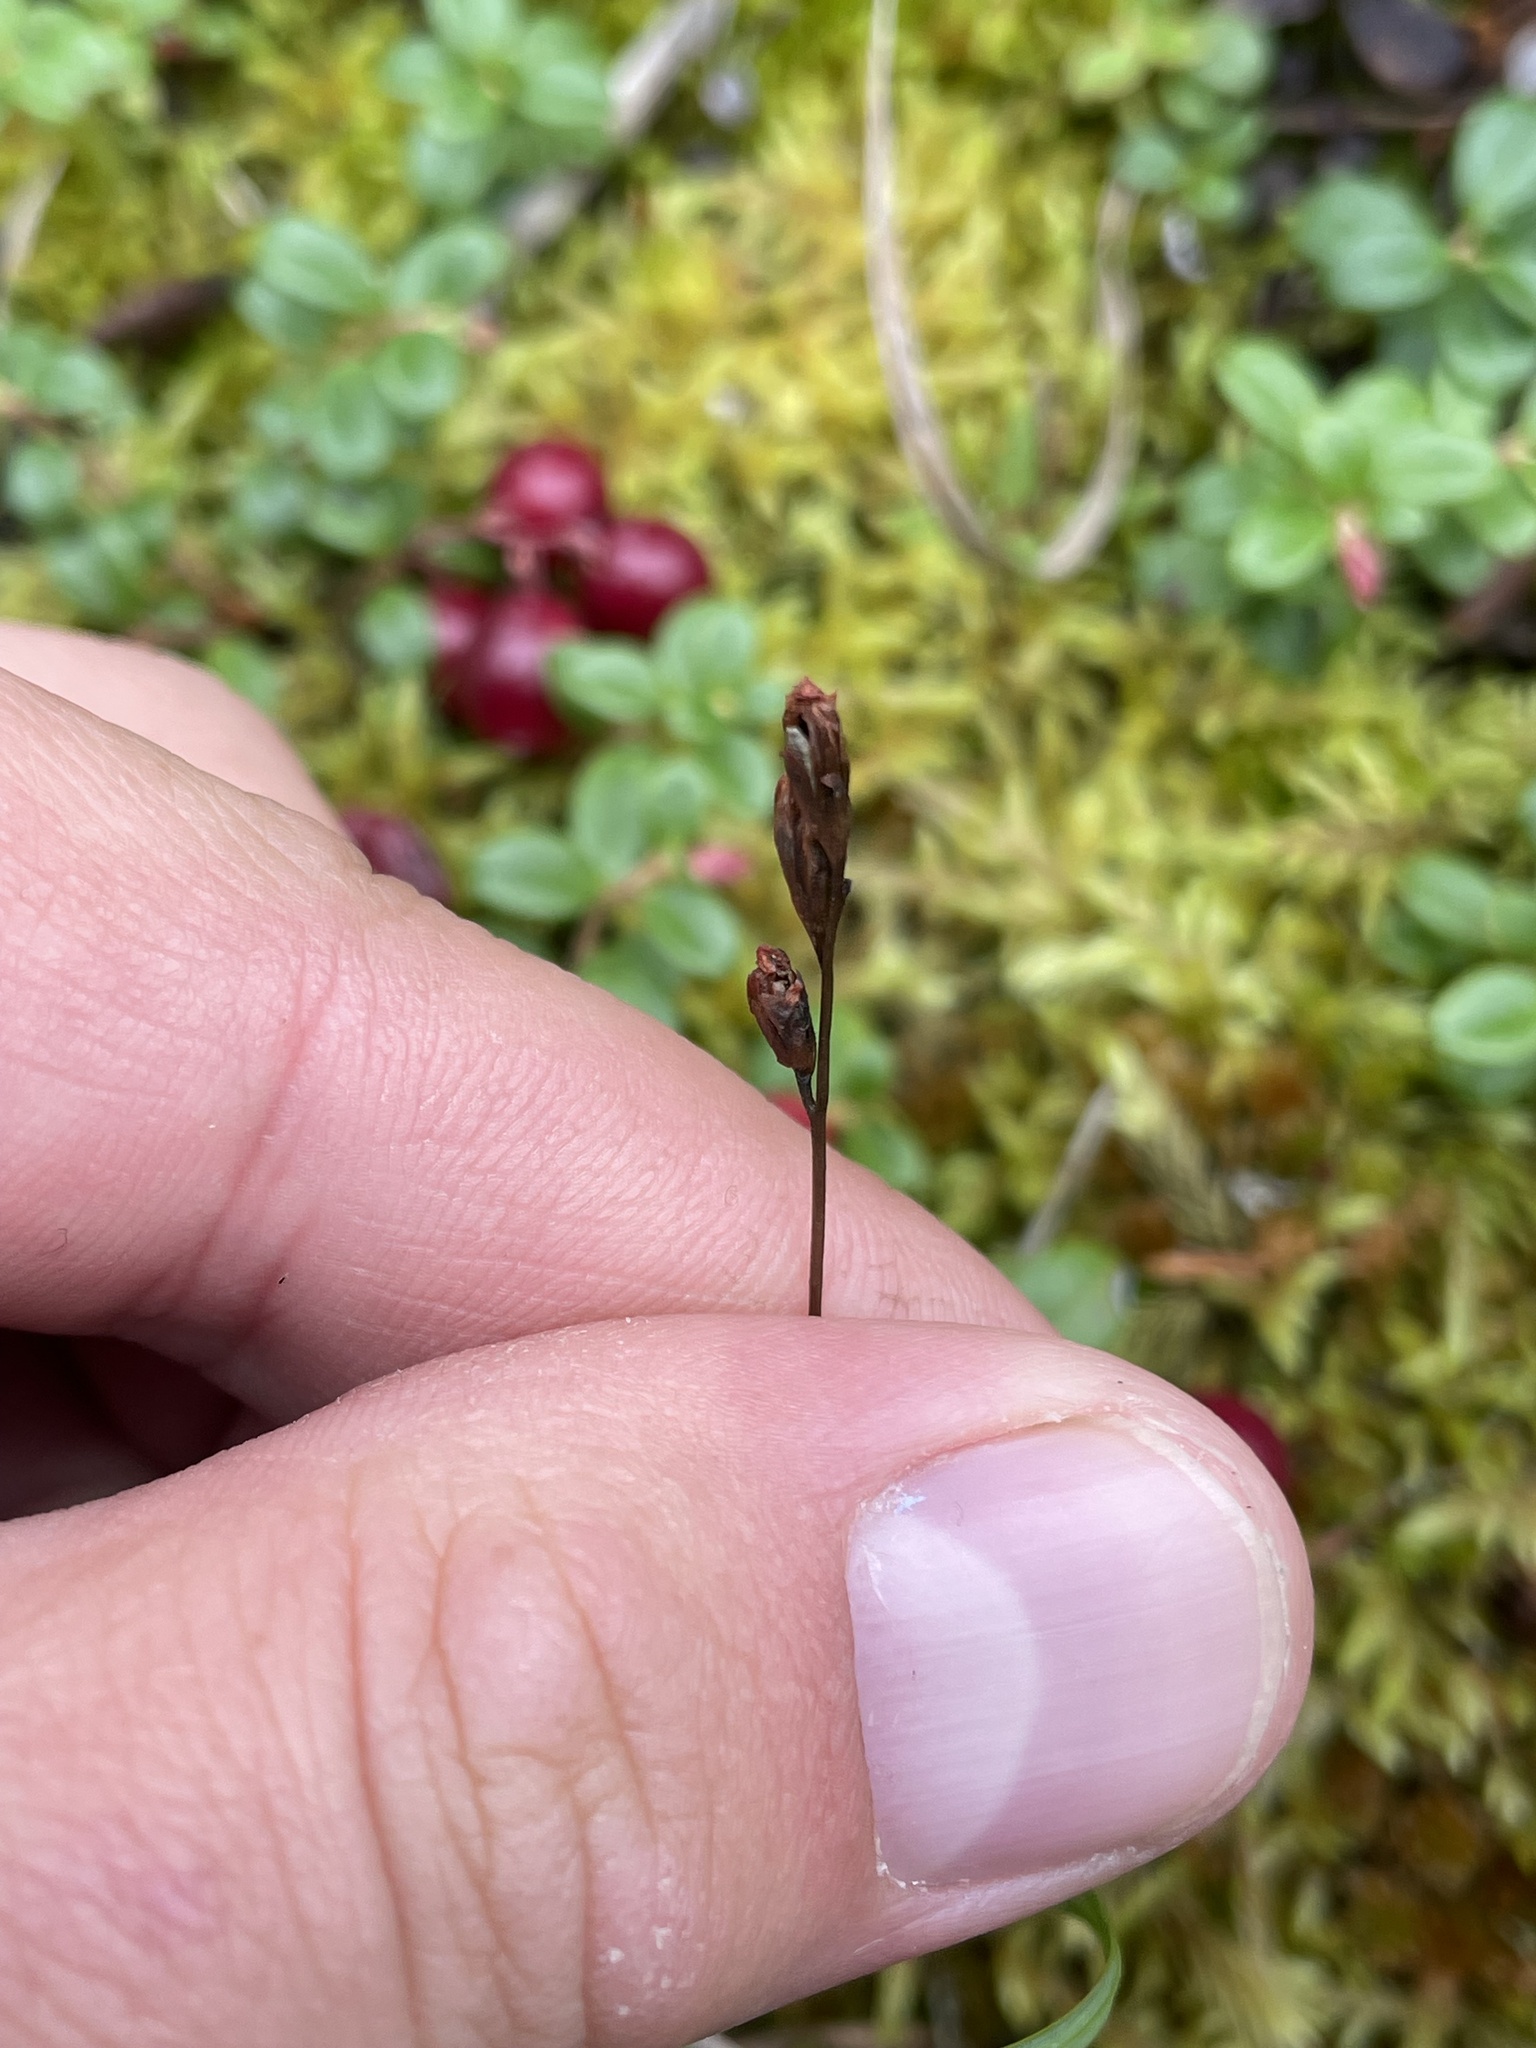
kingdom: Plantae
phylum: Tracheophyta
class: Magnoliopsida
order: Caryophyllales
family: Droseraceae
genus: Drosera
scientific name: Drosera rotundifolia
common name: Round-leaved sundew
